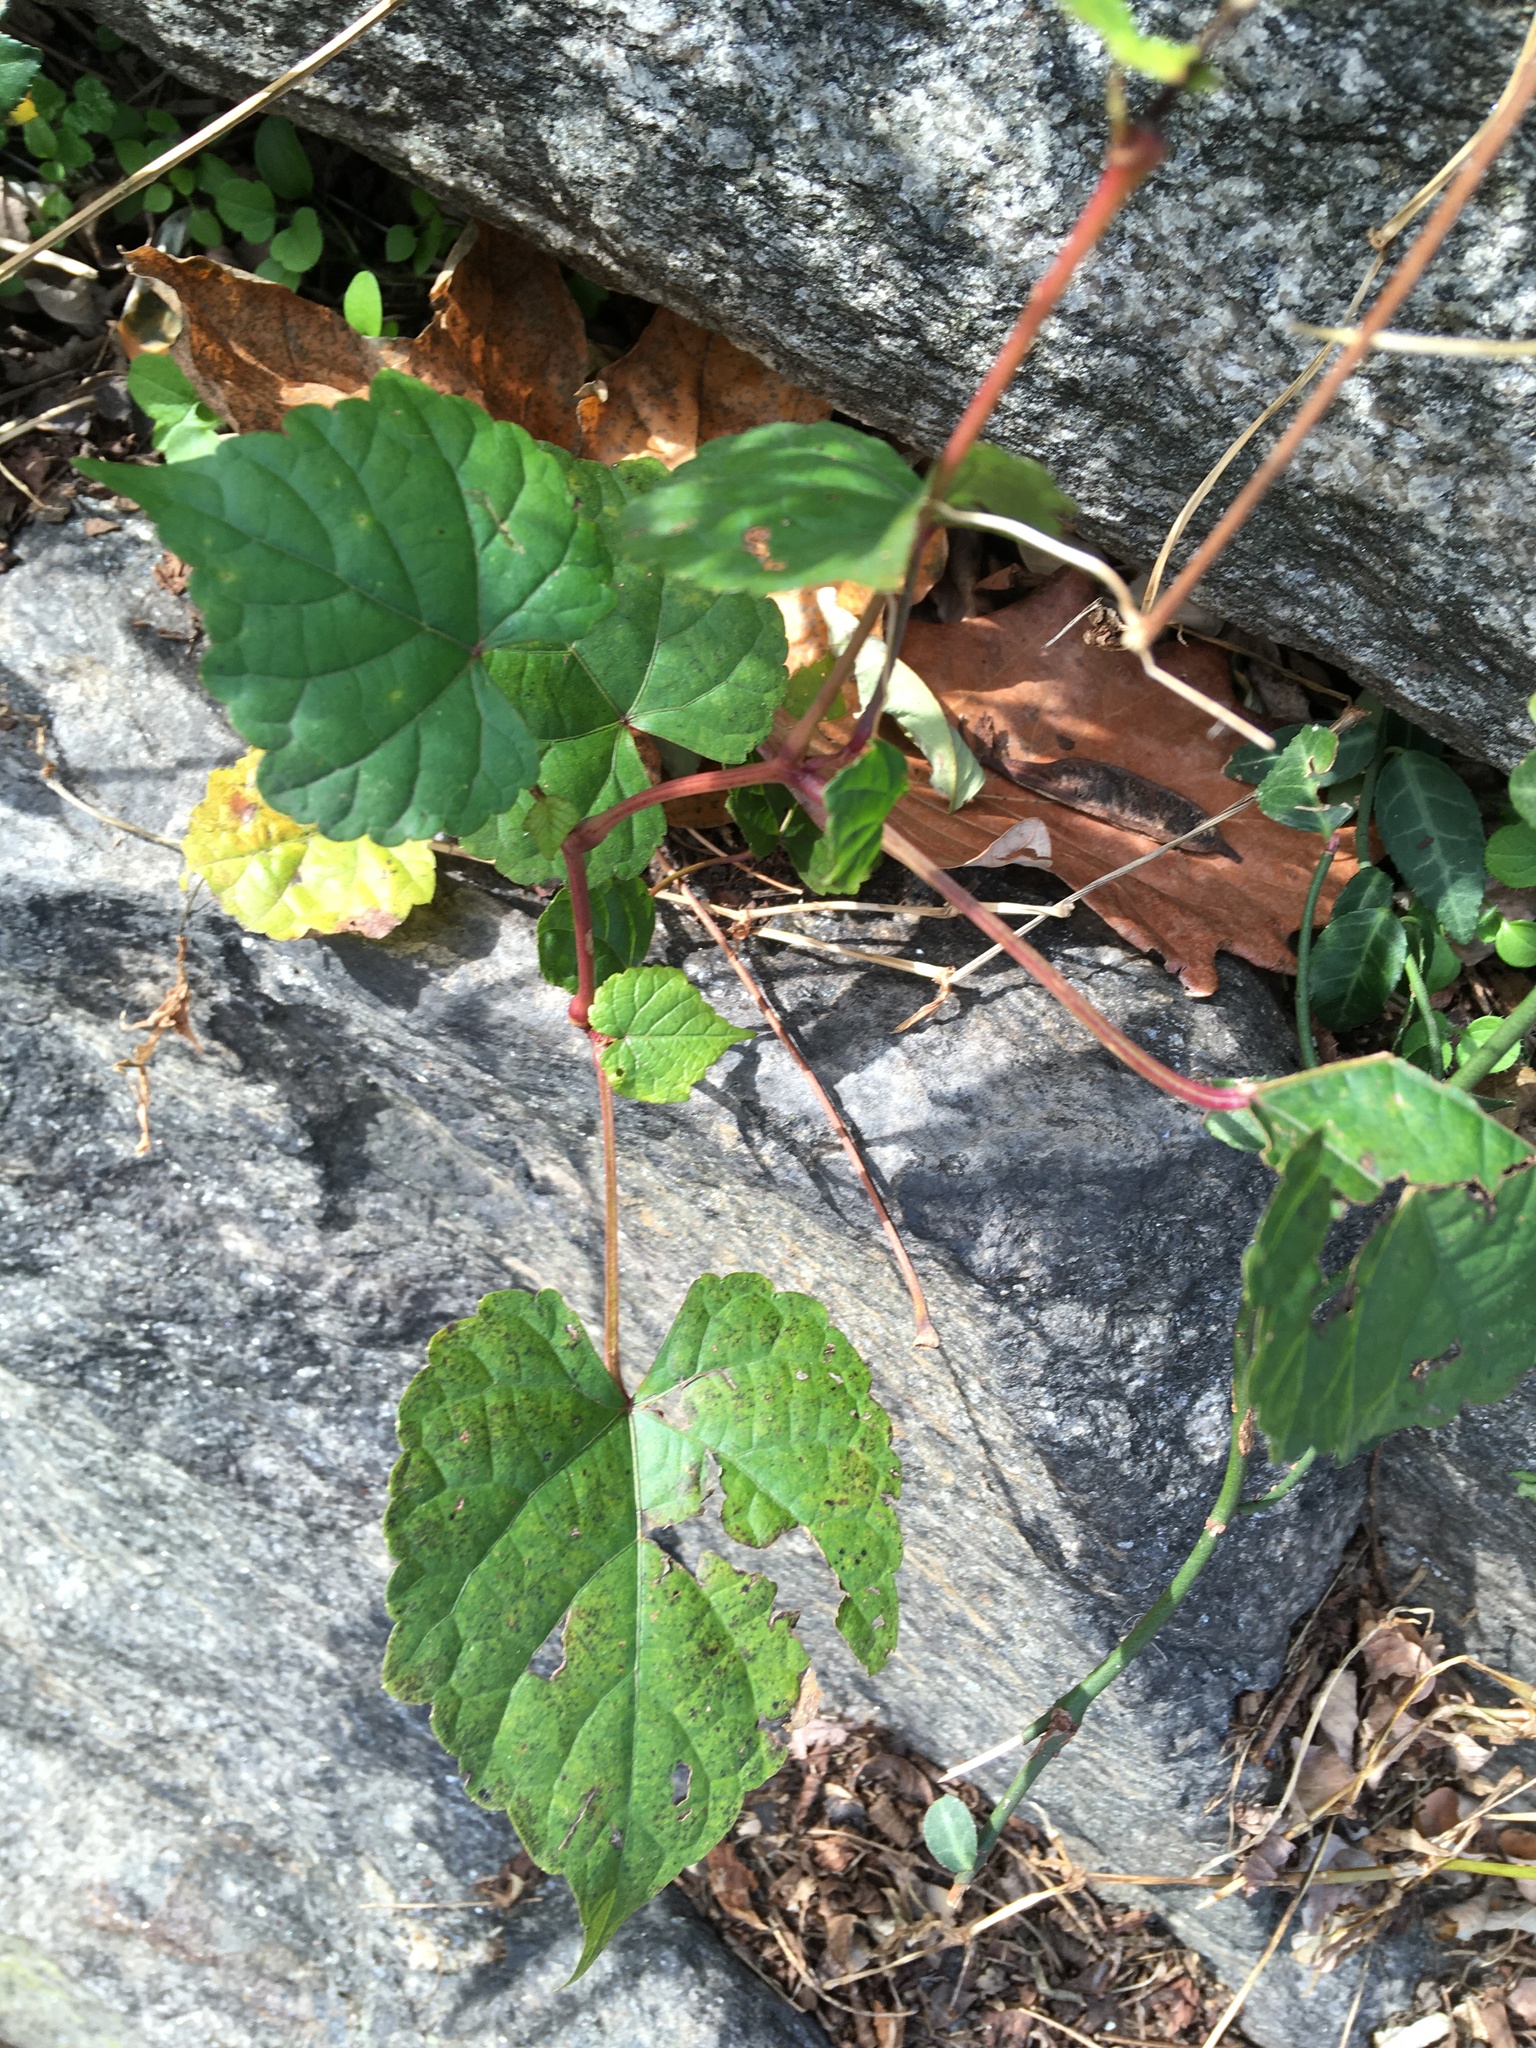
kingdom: Plantae
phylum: Tracheophyta
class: Magnoliopsida
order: Vitales
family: Vitaceae
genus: Ampelopsis
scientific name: Ampelopsis glandulosa
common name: Amur peppervine
